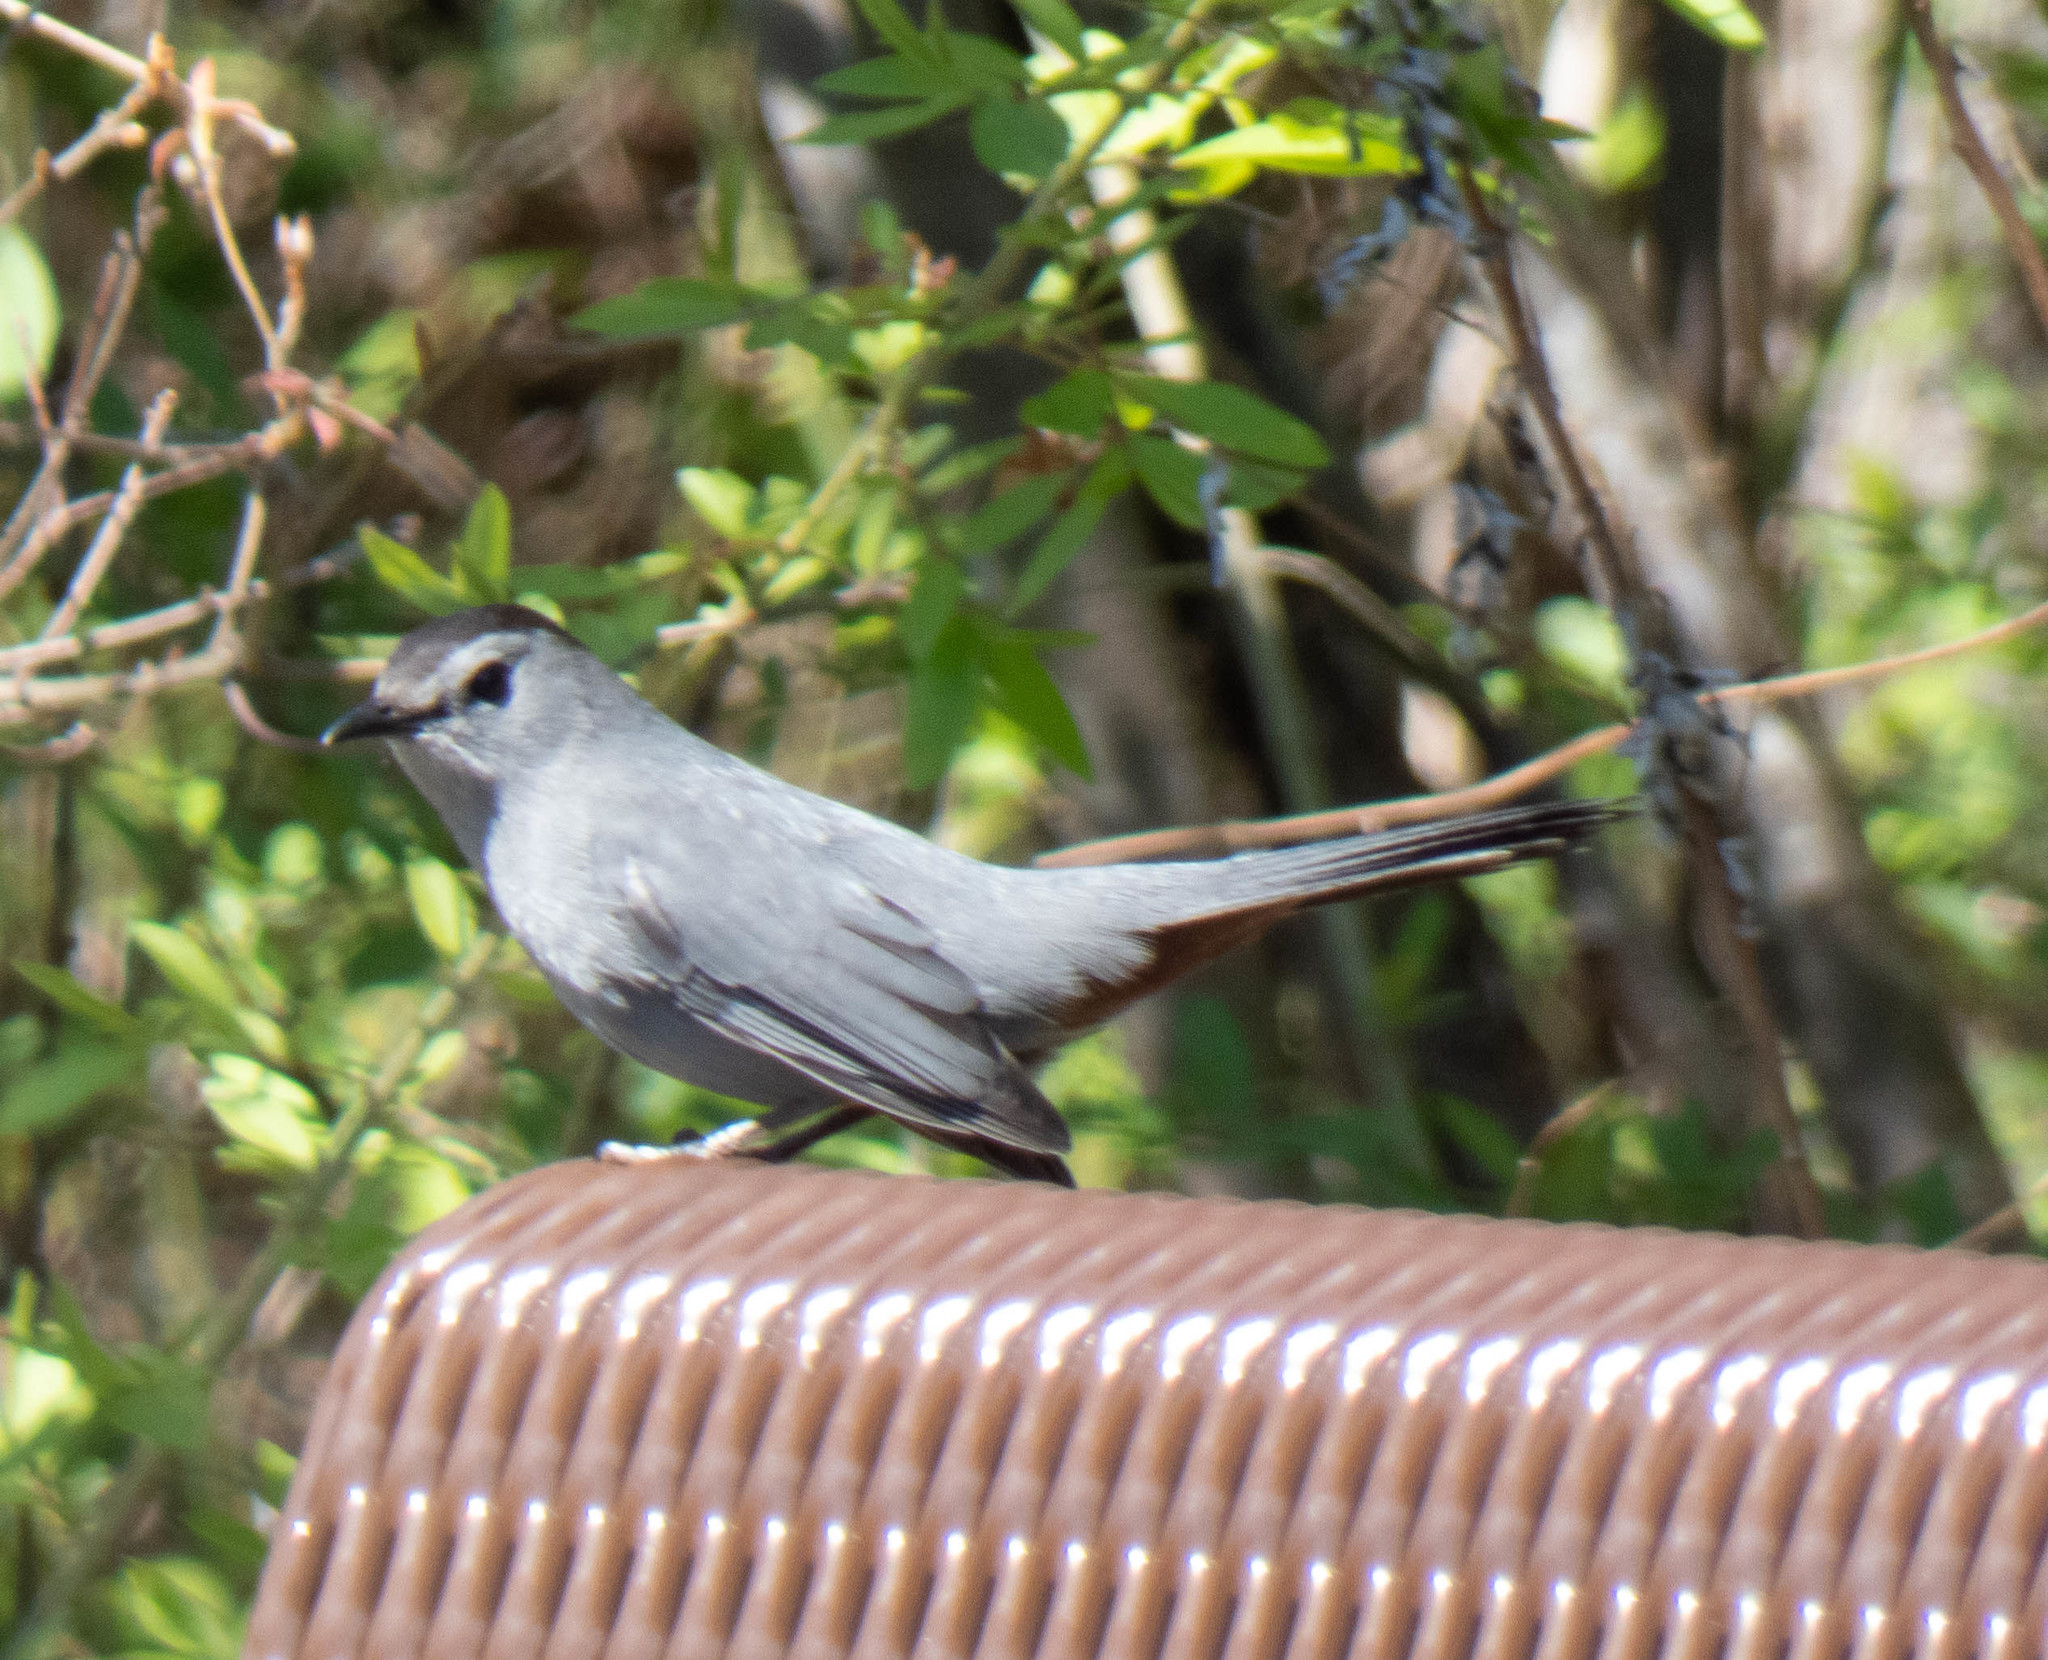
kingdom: Animalia
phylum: Chordata
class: Aves
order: Passeriformes
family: Mimidae
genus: Dumetella
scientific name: Dumetella carolinensis
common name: Gray catbird
